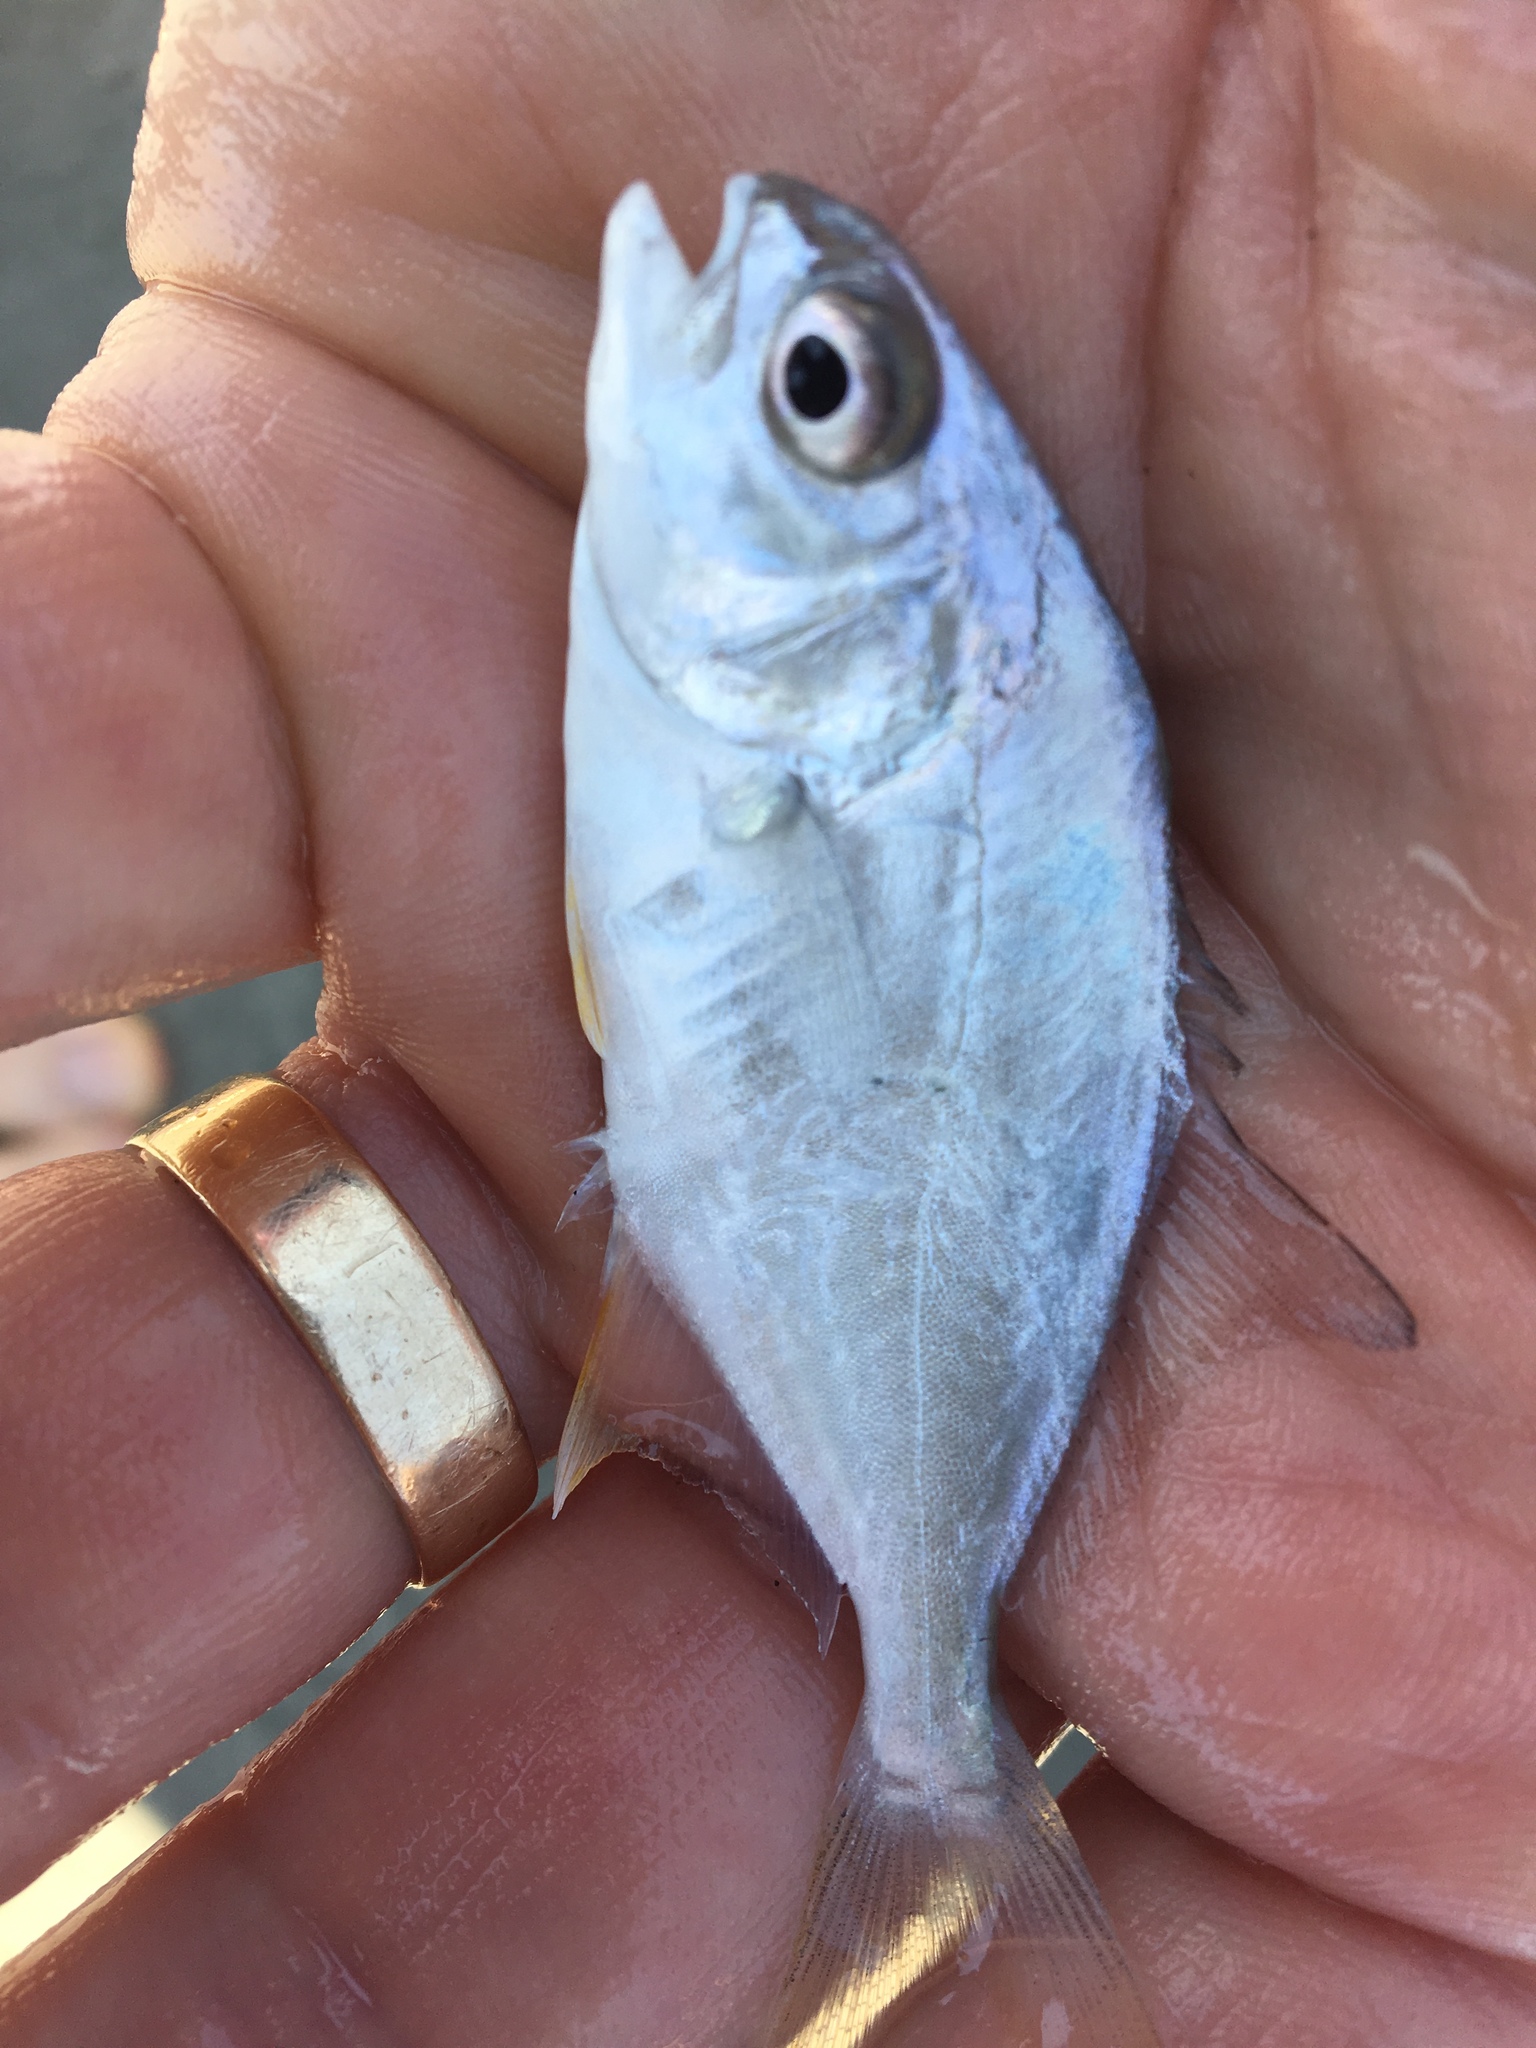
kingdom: Animalia
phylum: Chordata
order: Perciformes
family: Carangidae
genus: Trachinotus
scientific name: Trachinotus carolinus
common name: Florida pompano
